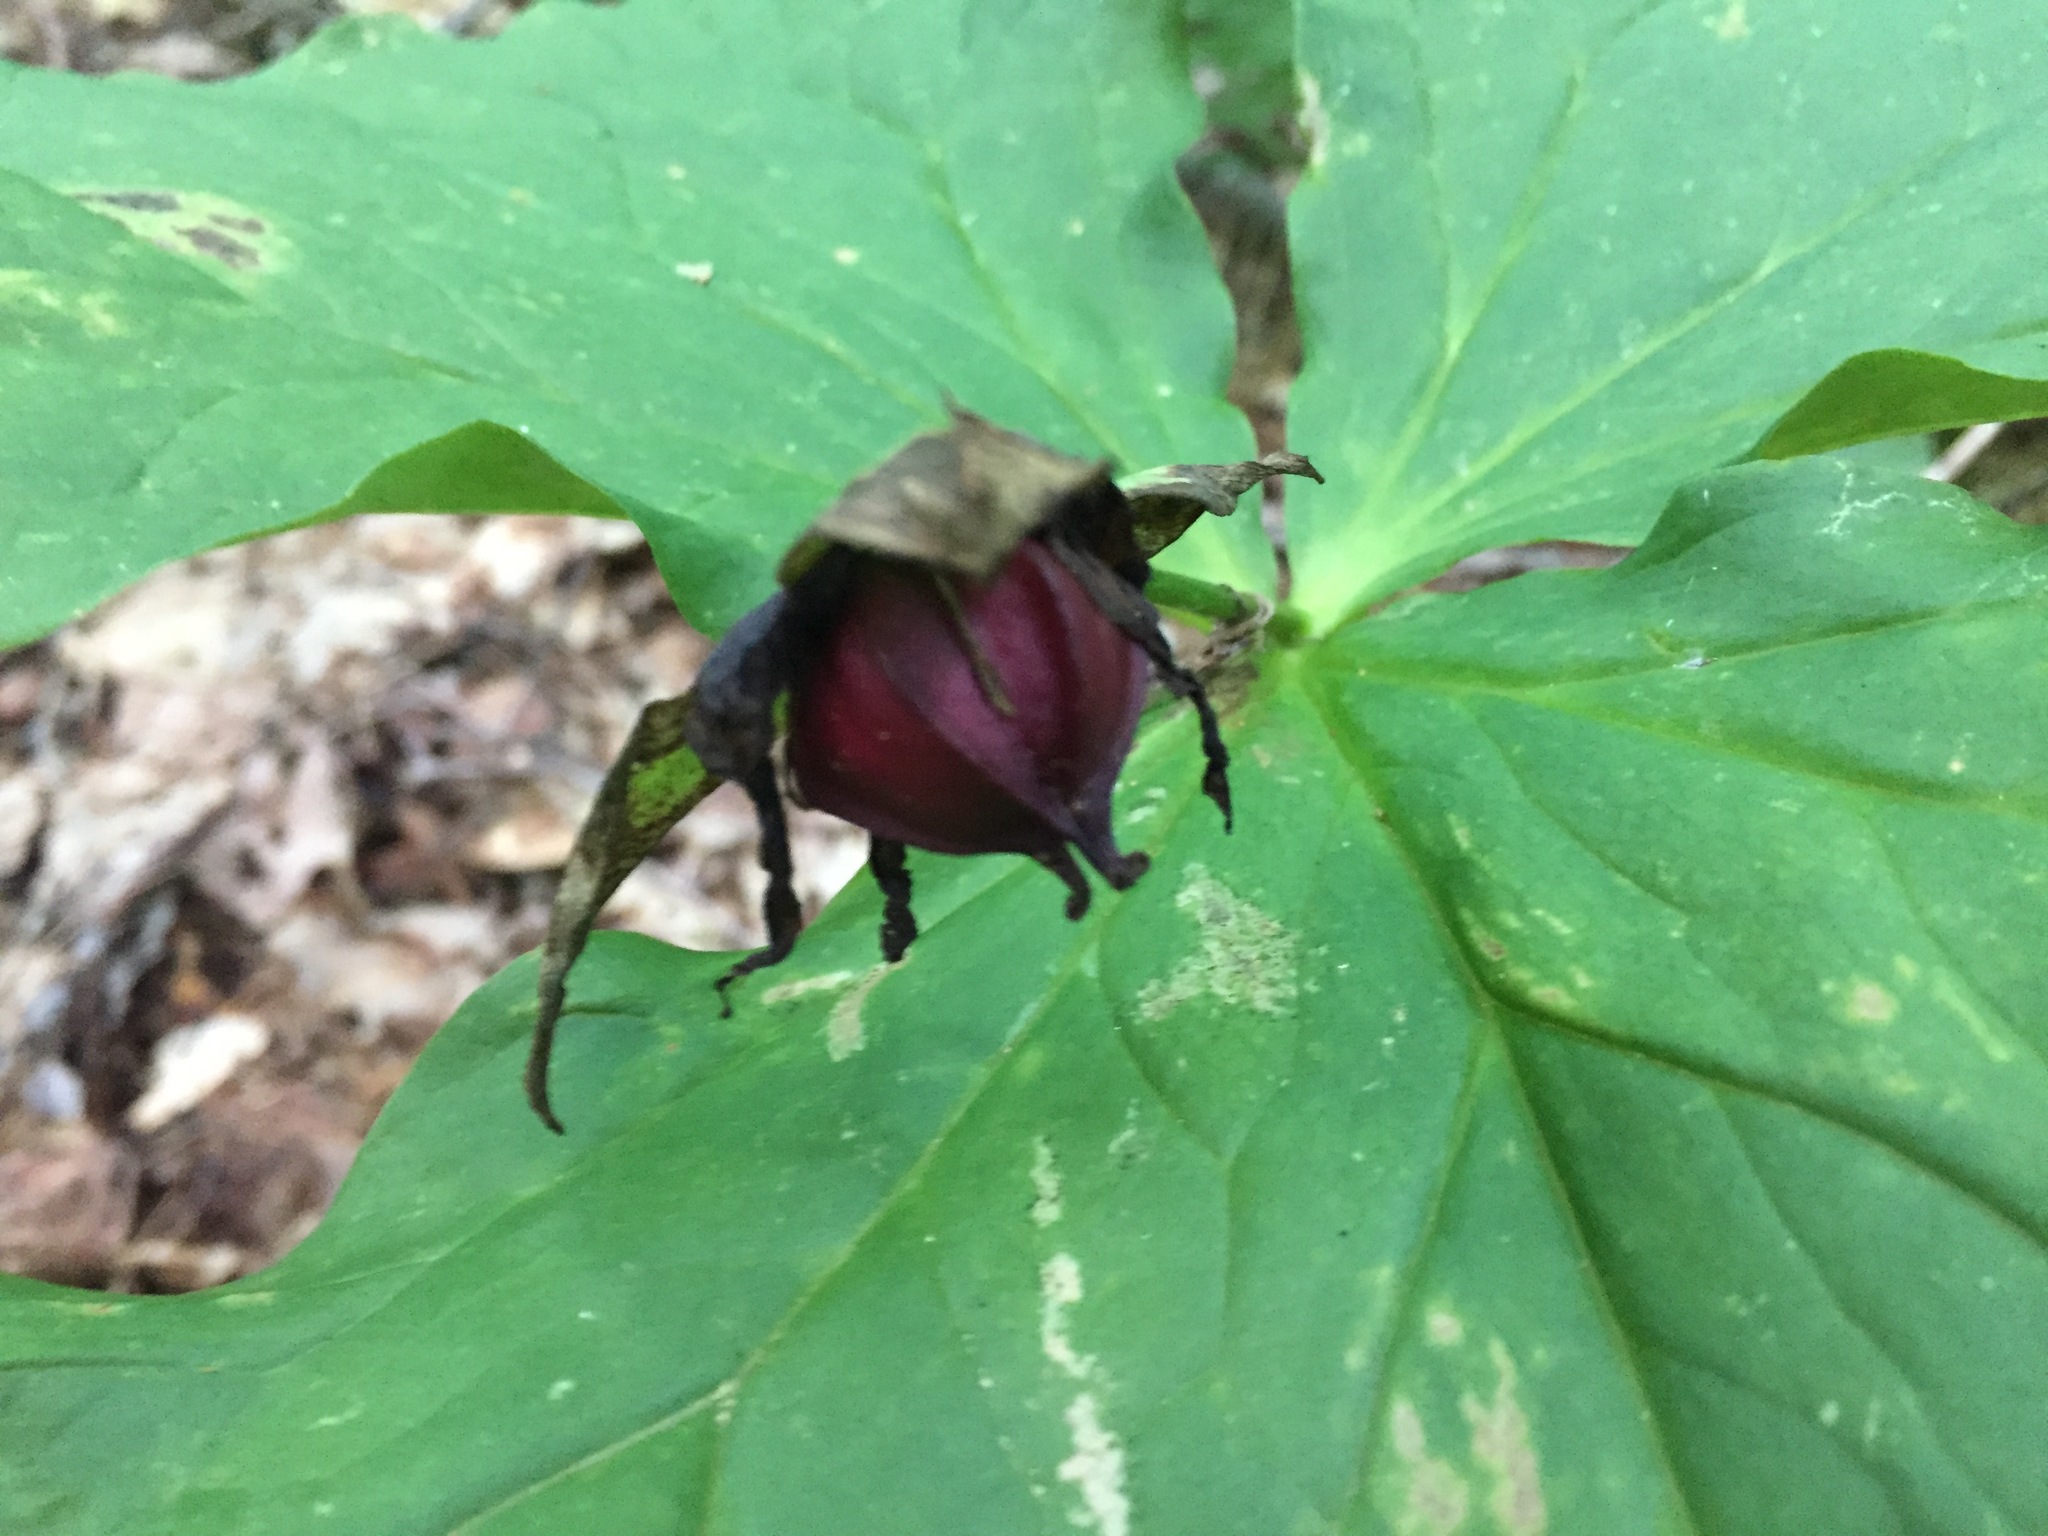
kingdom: Plantae
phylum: Tracheophyta
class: Liliopsida
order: Liliales
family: Melanthiaceae
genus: Trillium
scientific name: Trillium erectum
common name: Purple trillium
